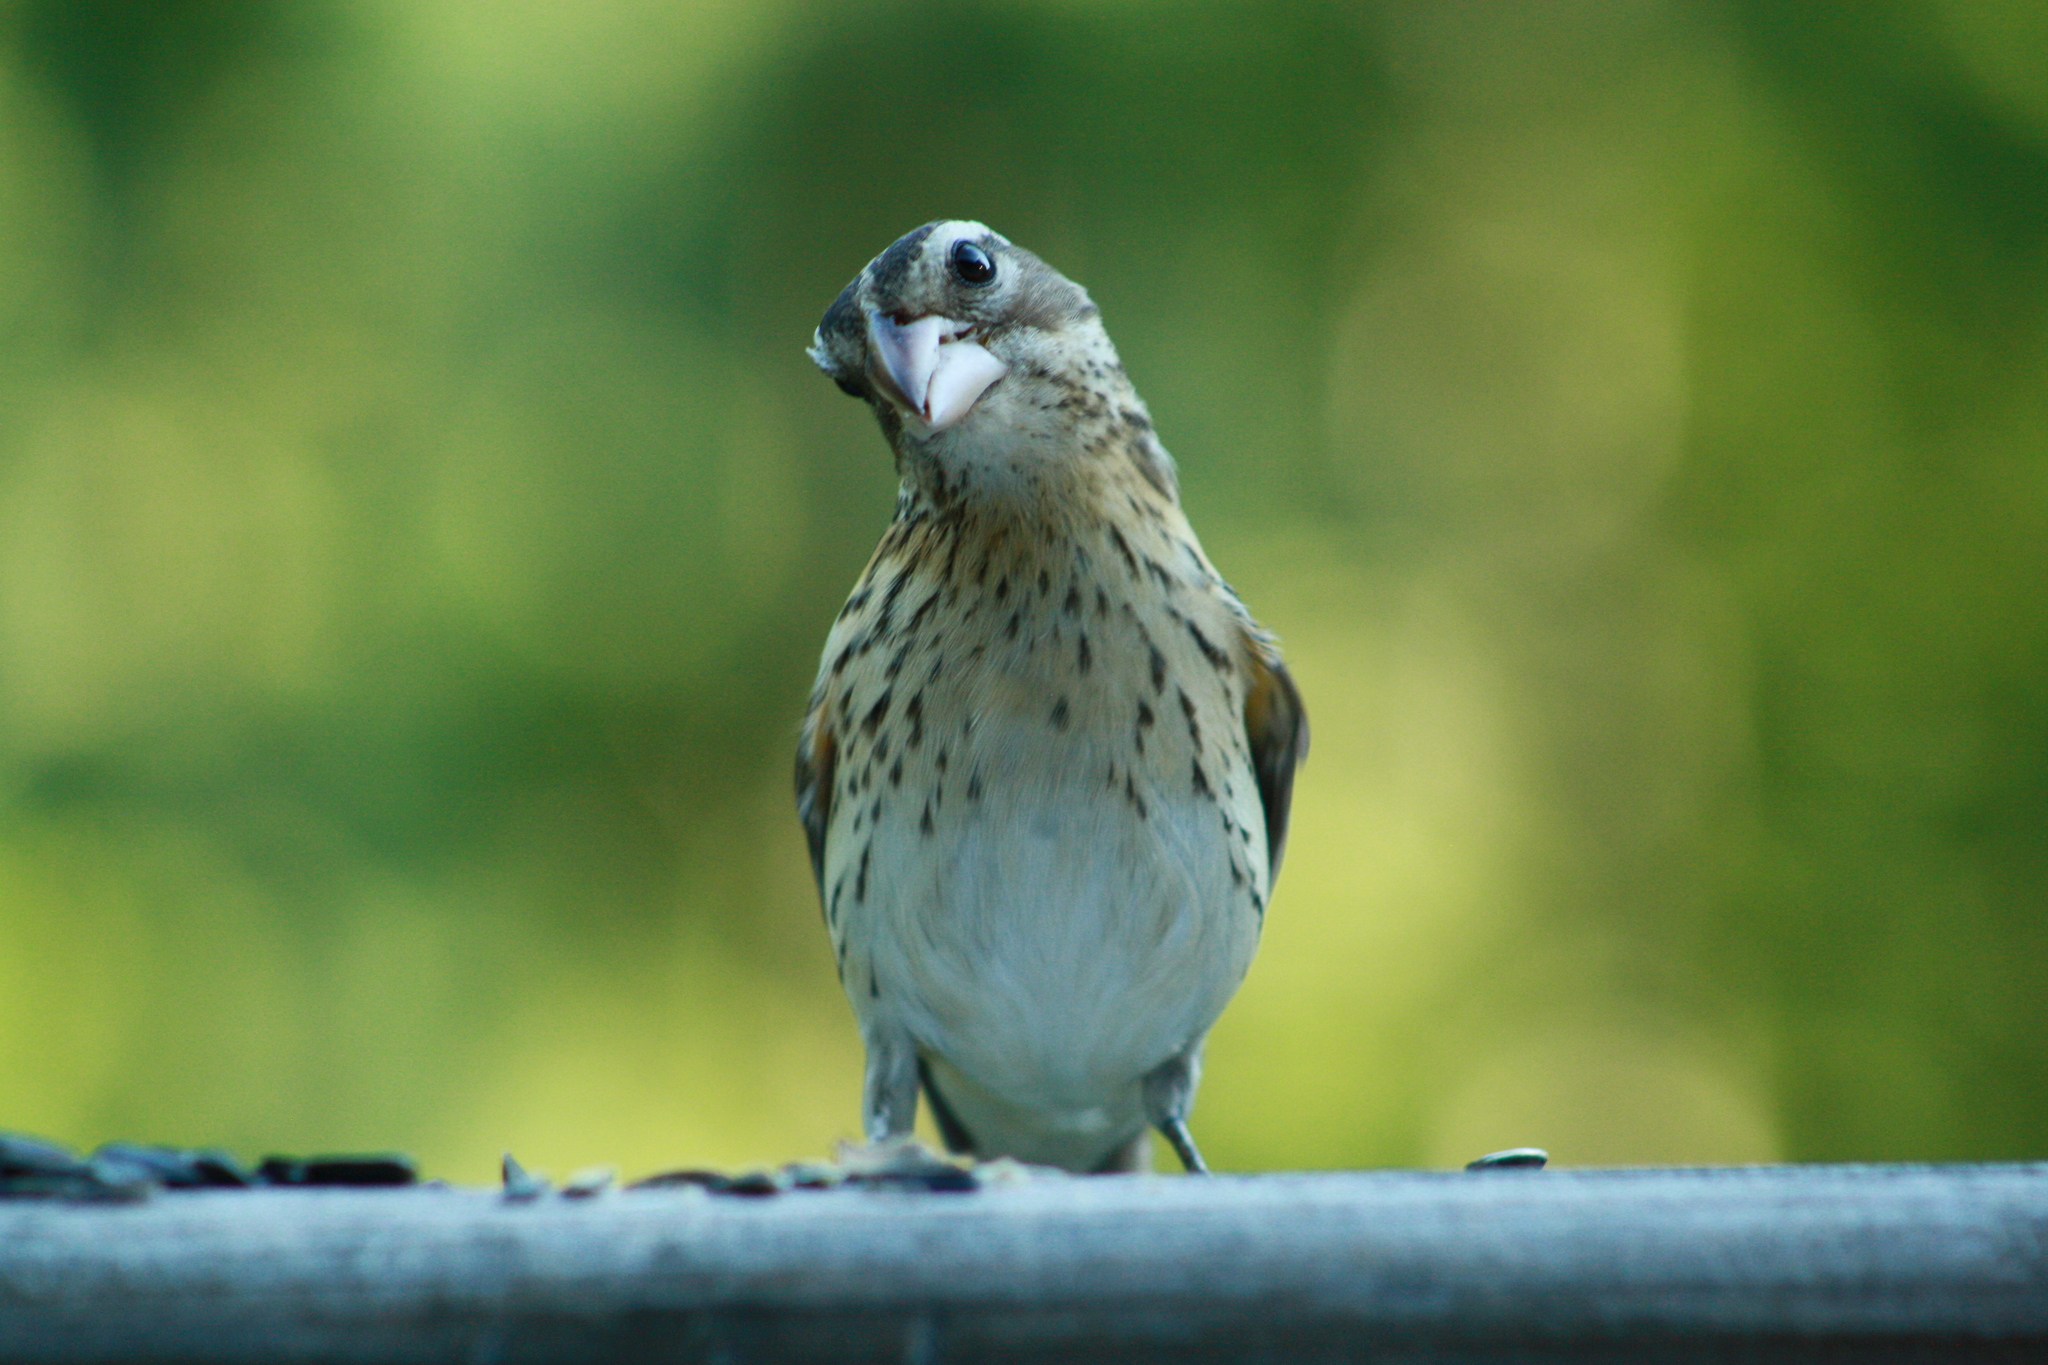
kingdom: Animalia
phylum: Chordata
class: Aves
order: Passeriformes
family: Cardinalidae
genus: Pheucticus
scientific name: Pheucticus ludovicianus
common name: Rose-breasted grosbeak
